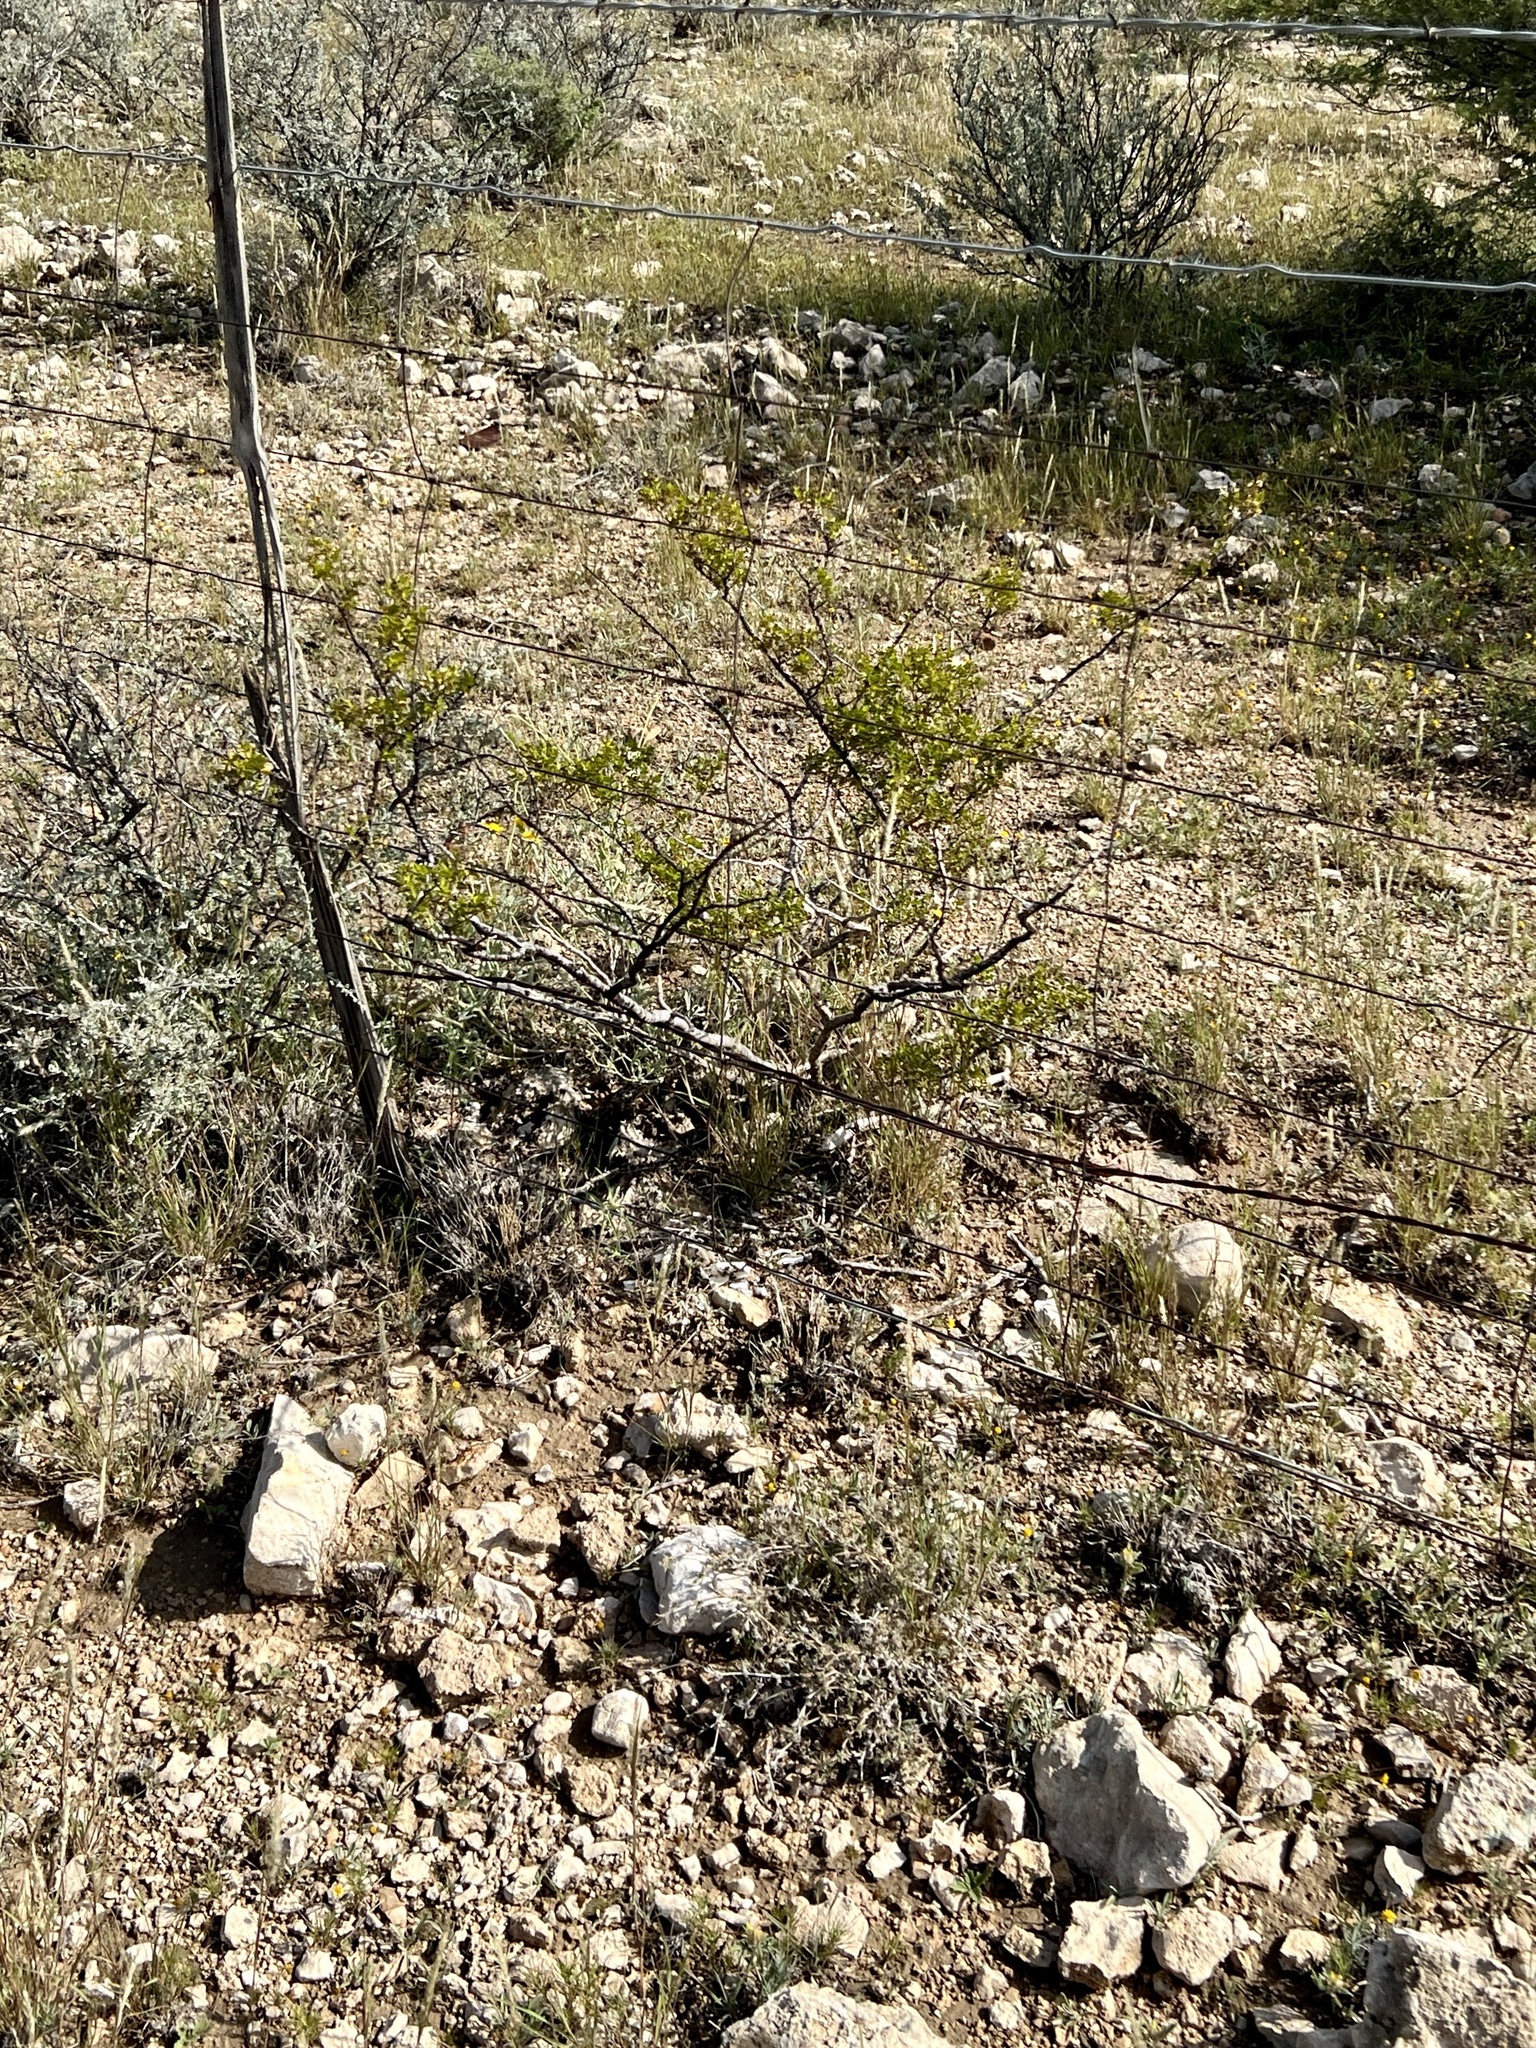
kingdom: Plantae
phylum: Tracheophyta
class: Magnoliopsida
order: Zygophyllales
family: Zygophyllaceae
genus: Larrea
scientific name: Larrea tridentata
